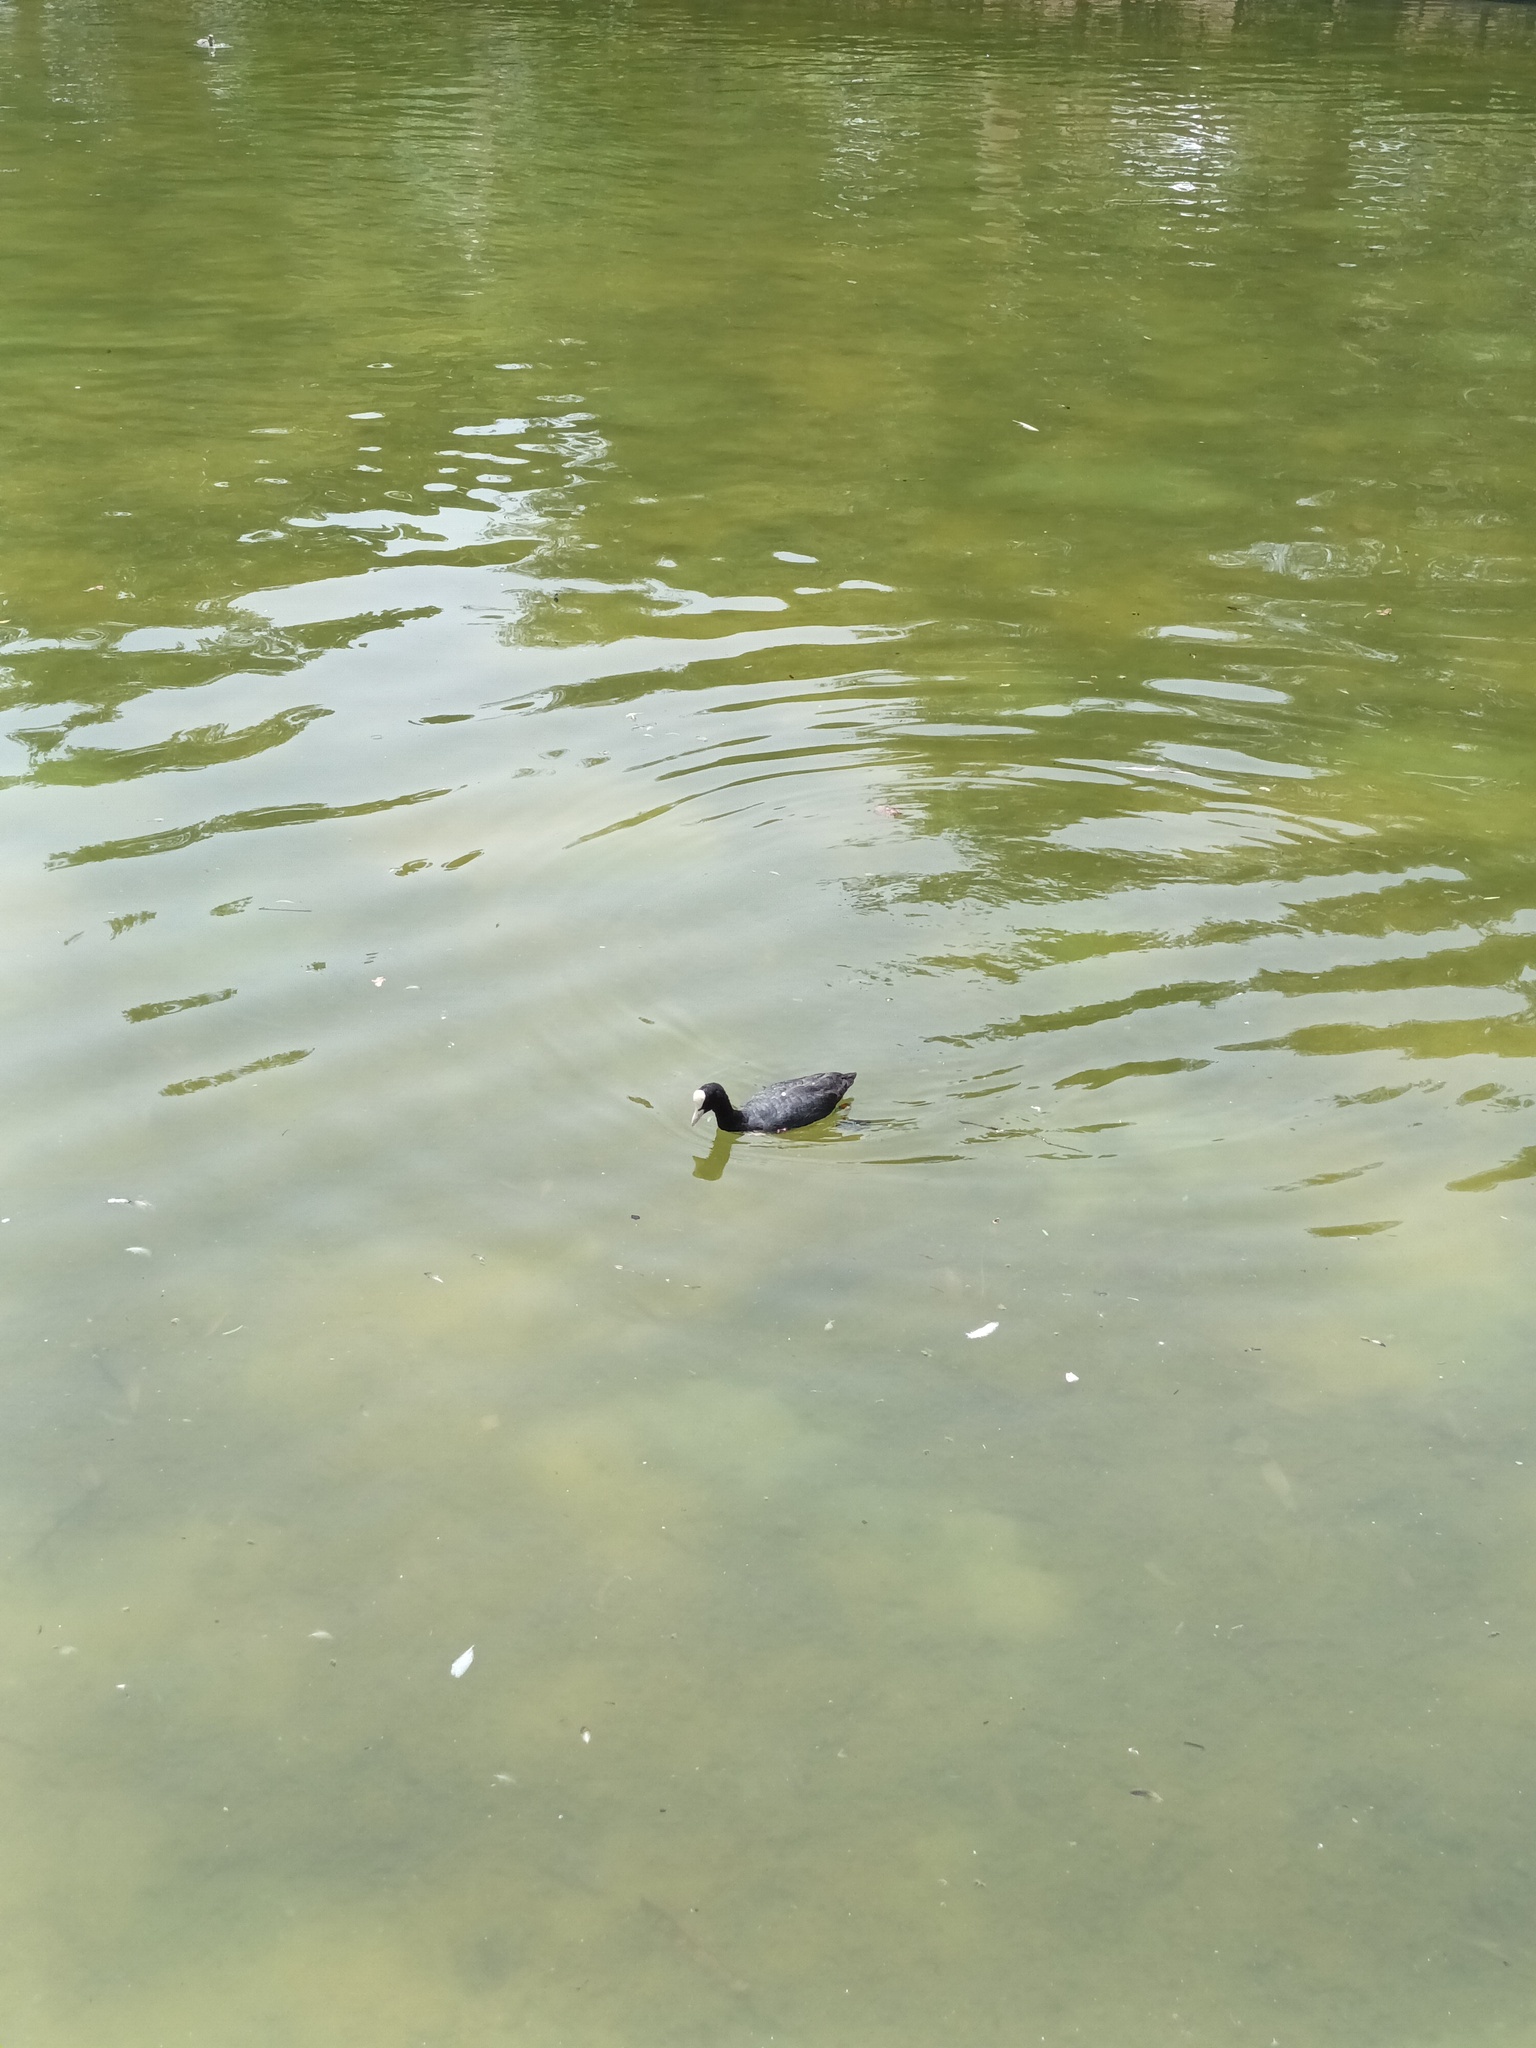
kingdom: Animalia
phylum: Chordata
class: Aves
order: Gruiformes
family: Rallidae
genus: Fulica
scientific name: Fulica atra
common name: Eurasian coot
